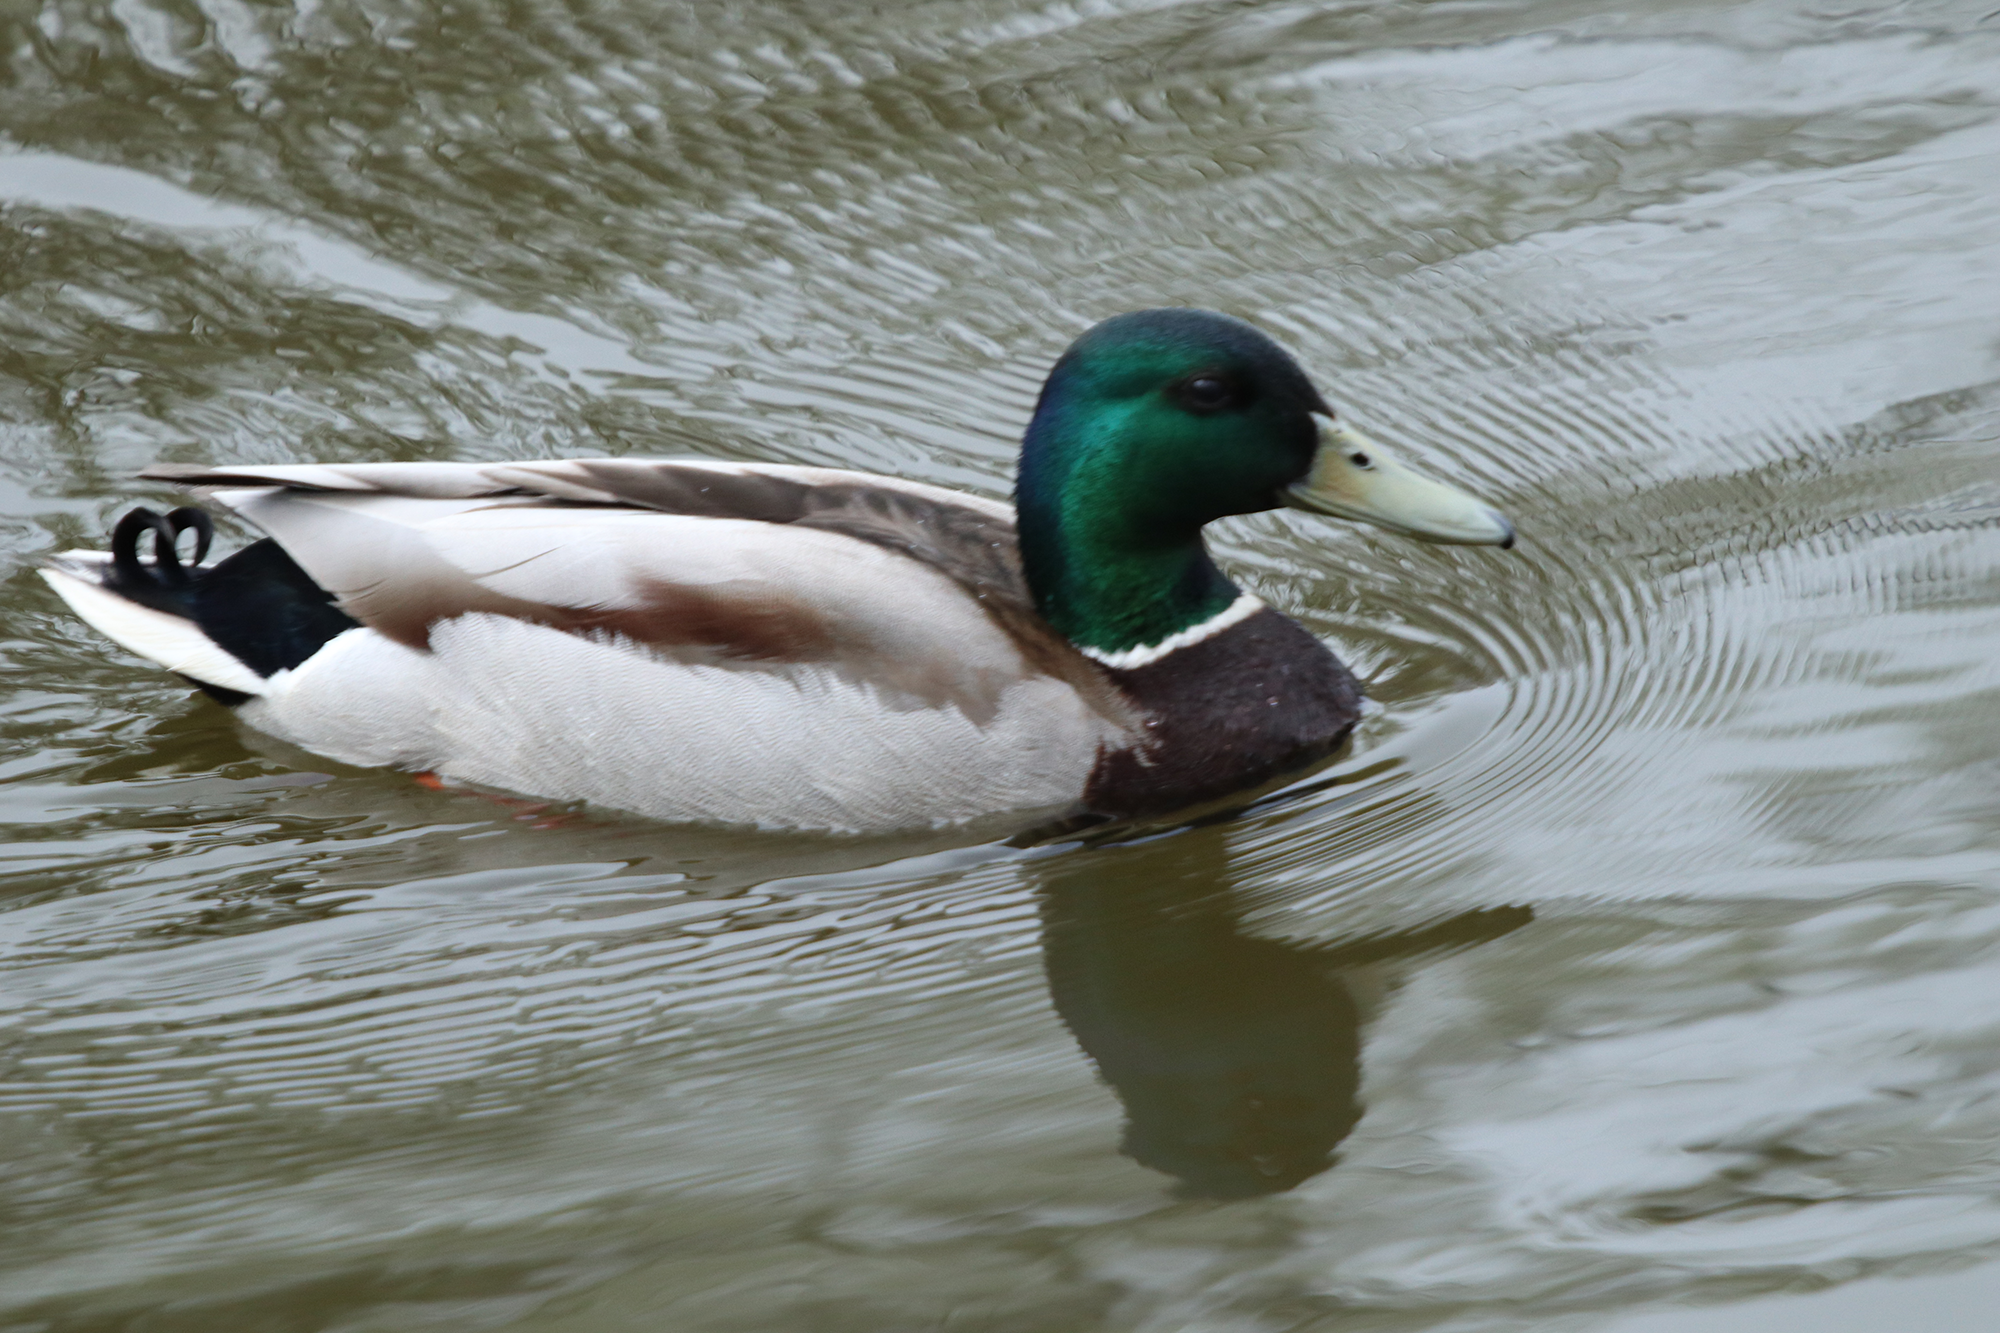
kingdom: Animalia
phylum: Chordata
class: Aves
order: Anseriformes
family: Anatidae
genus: Anas
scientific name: Anas platyrhynchos
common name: Mallard
